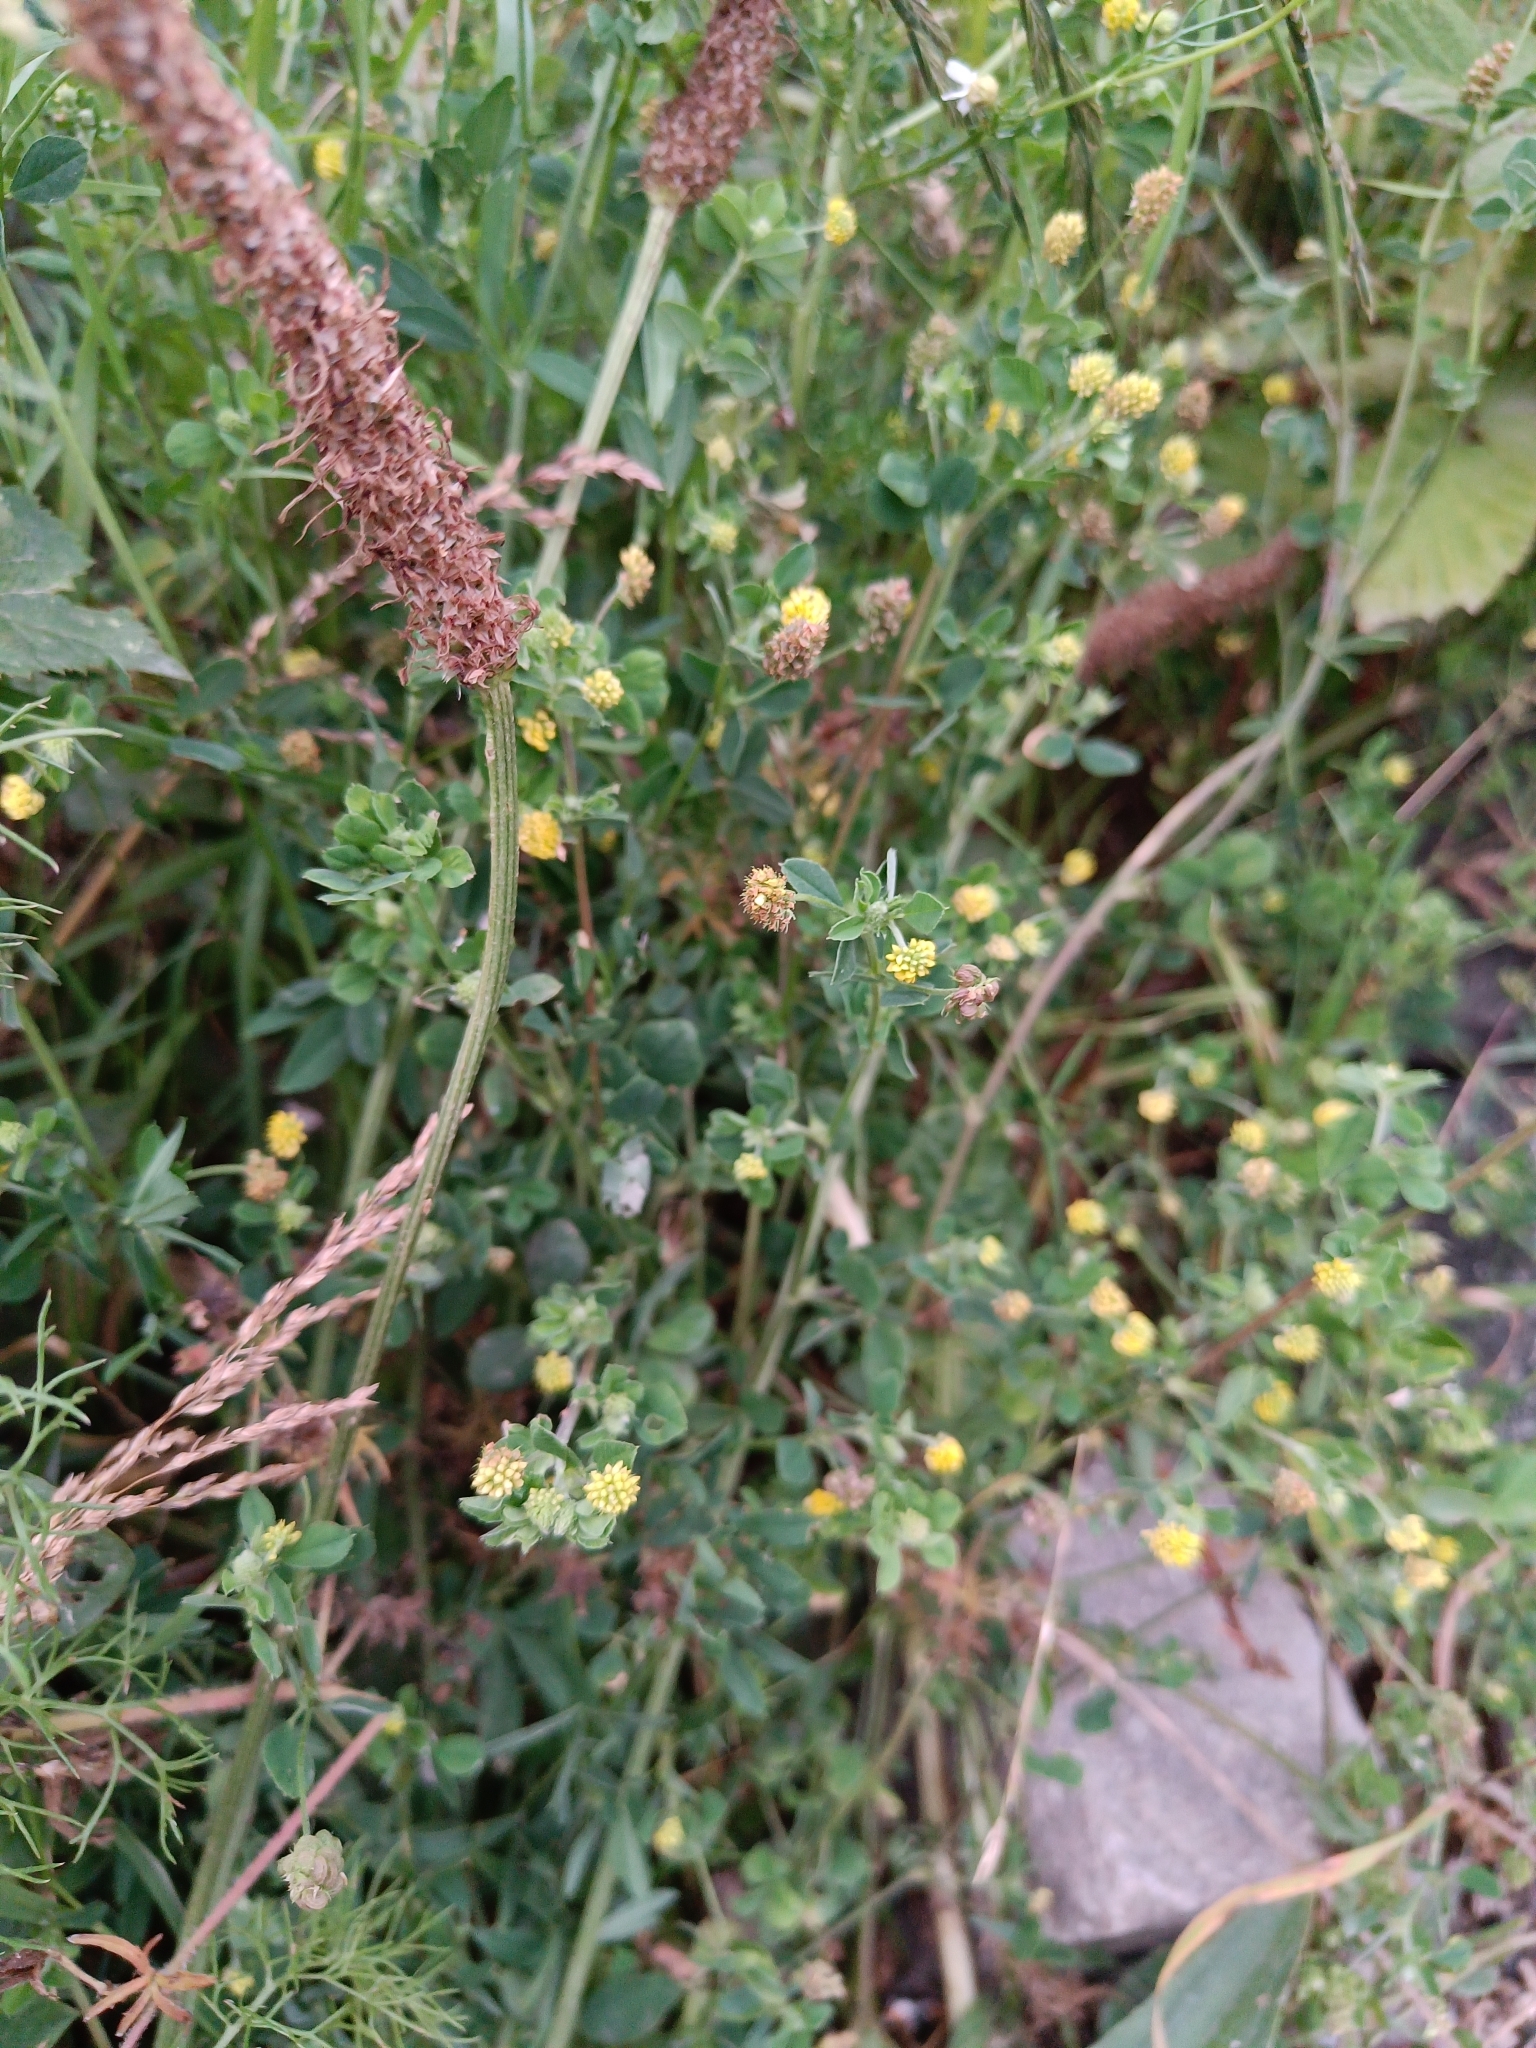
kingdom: Plantae
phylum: Tracheophyta
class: Magnoliopsida
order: Fabales
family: Fabaceae
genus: Medicago
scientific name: Medicago lupulina
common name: Black medick
